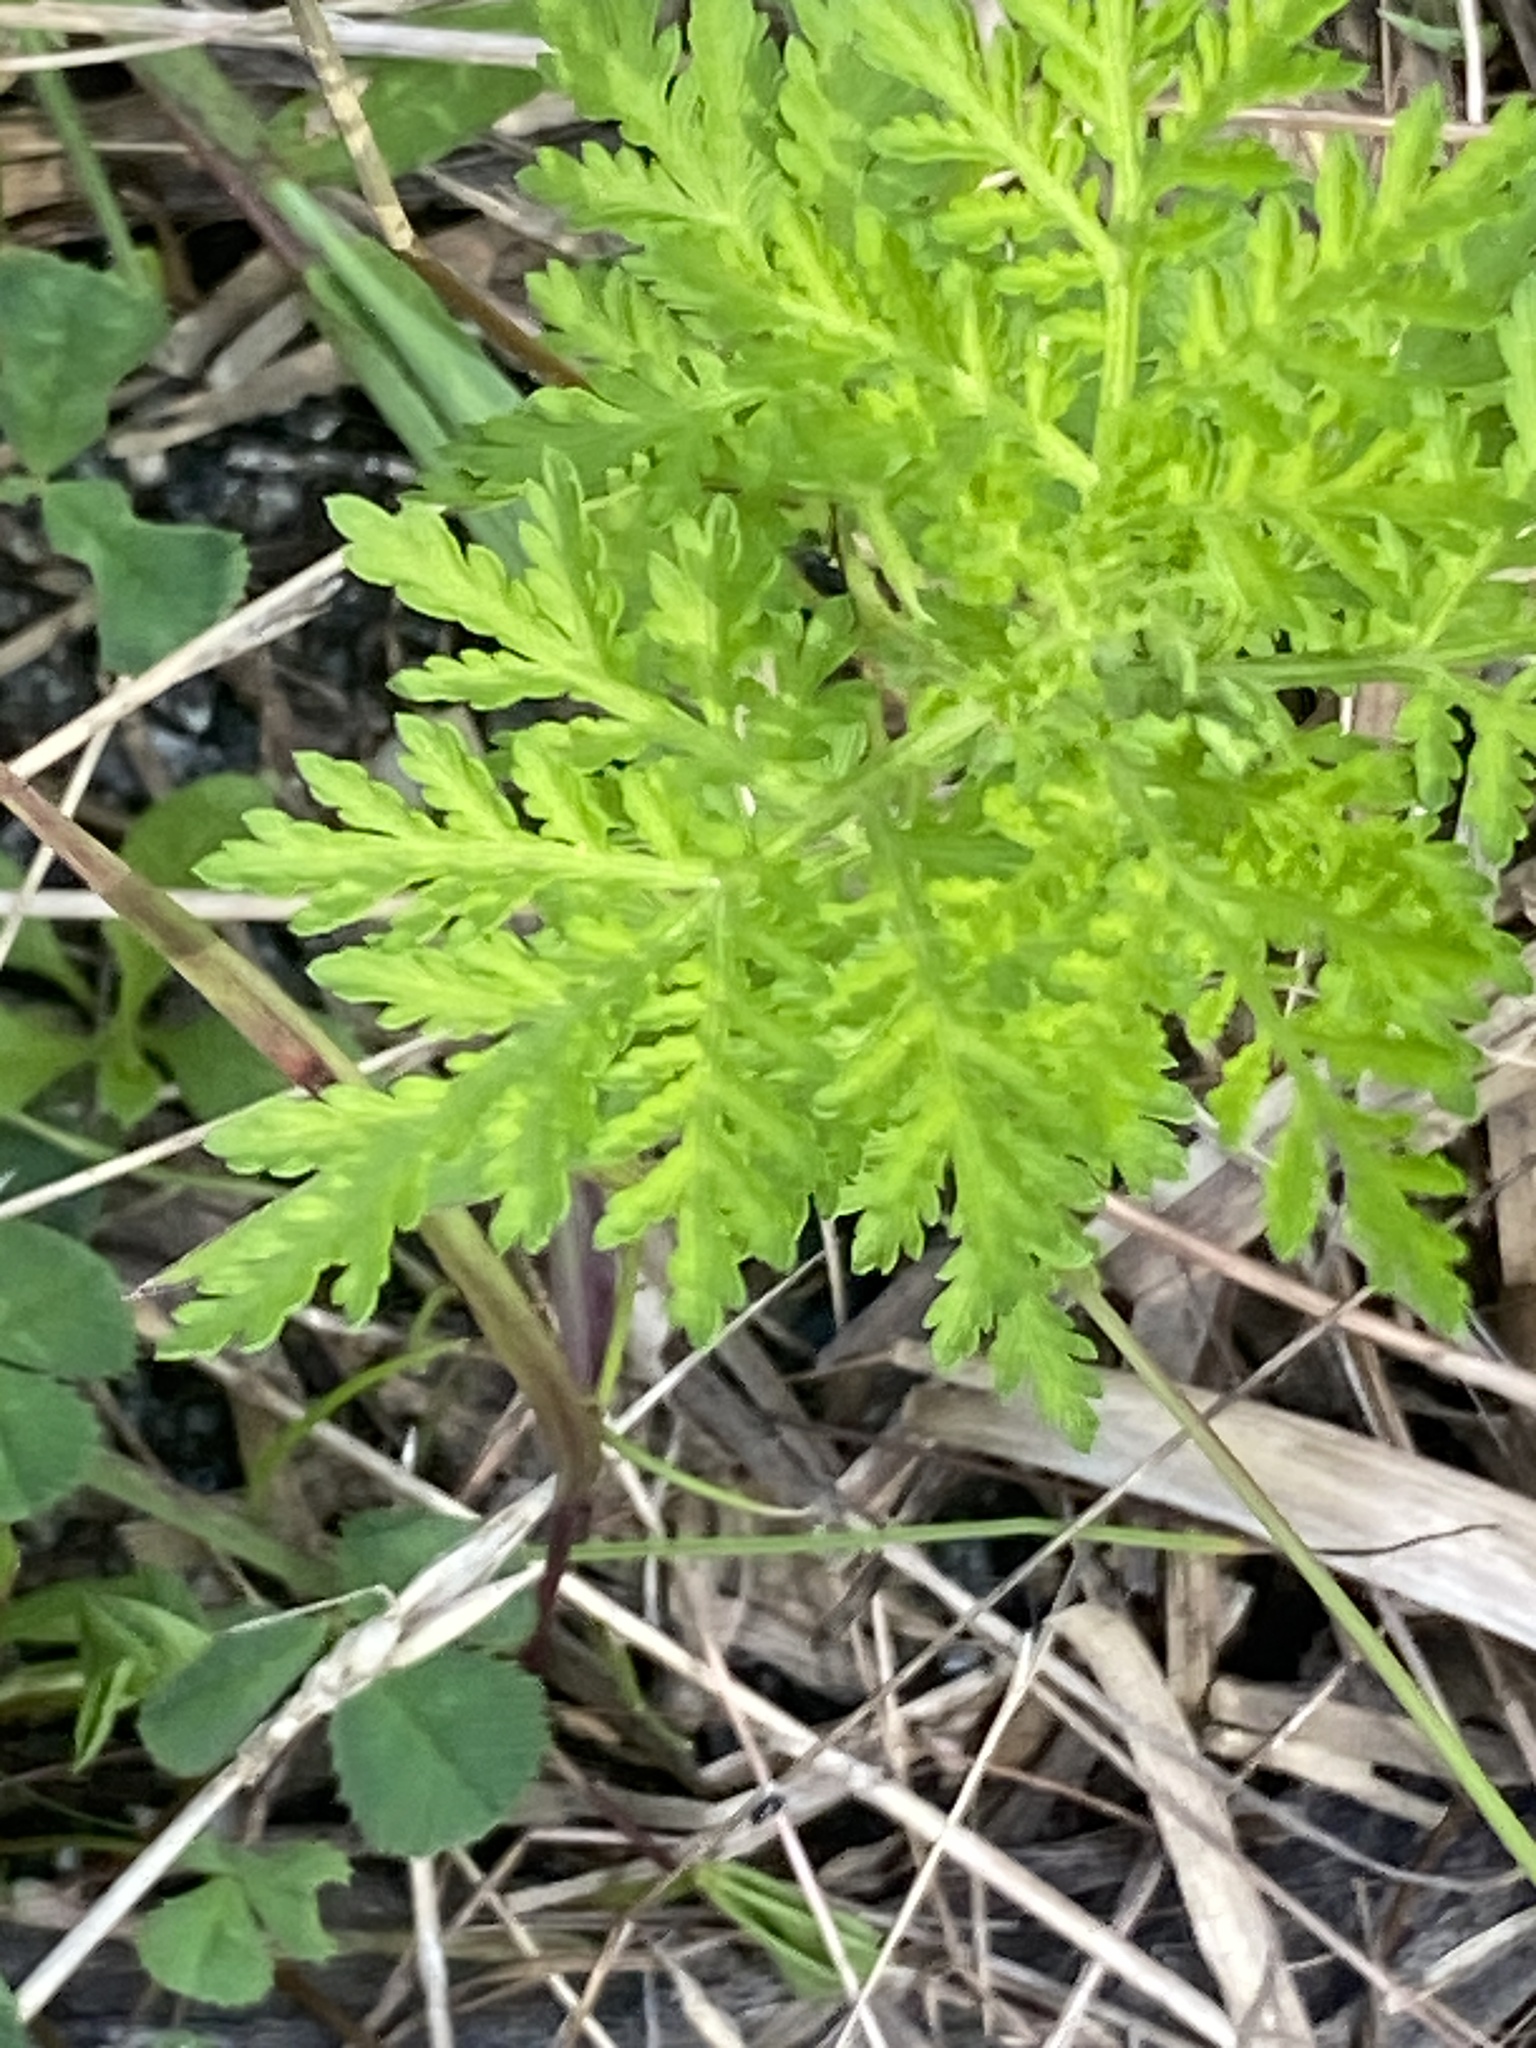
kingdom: Plantae
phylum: Tracheophyta
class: Magnoliopsida
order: Asterales
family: Asteraceae
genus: Artemisia
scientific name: Artemisia annua
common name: Sweet sagewort
